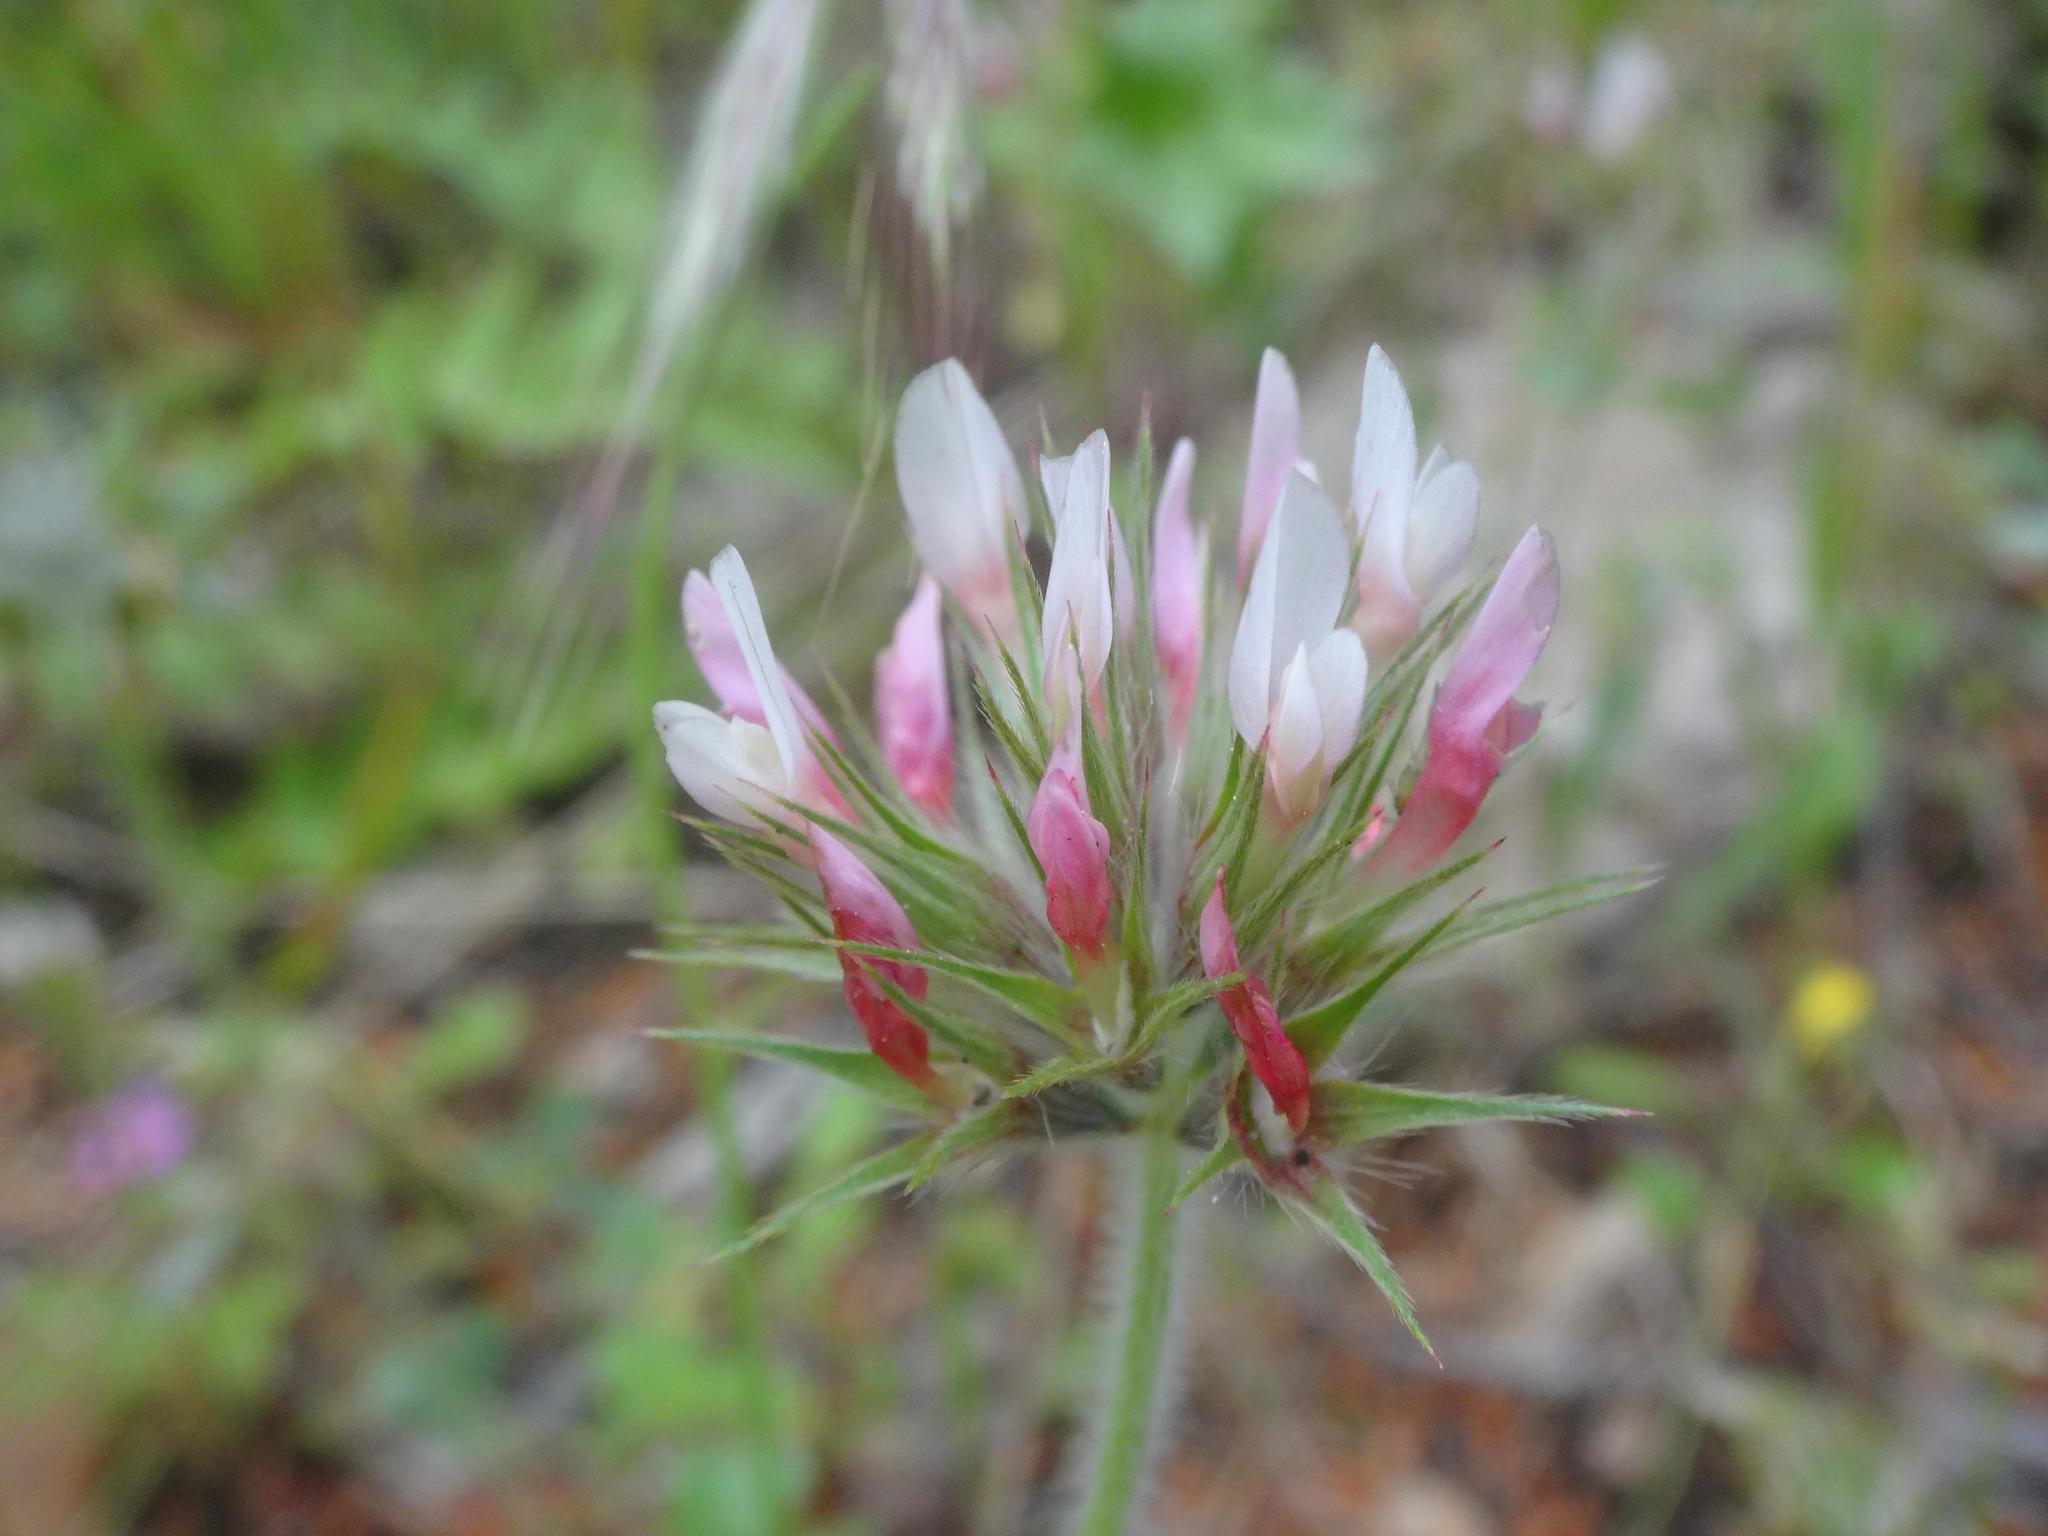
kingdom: Plantae
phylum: Tracheophyta
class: Magnoliopsida
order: Fabales
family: Fabaceae
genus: Trifolium
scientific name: Trifolium stellatum
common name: Starry clover
